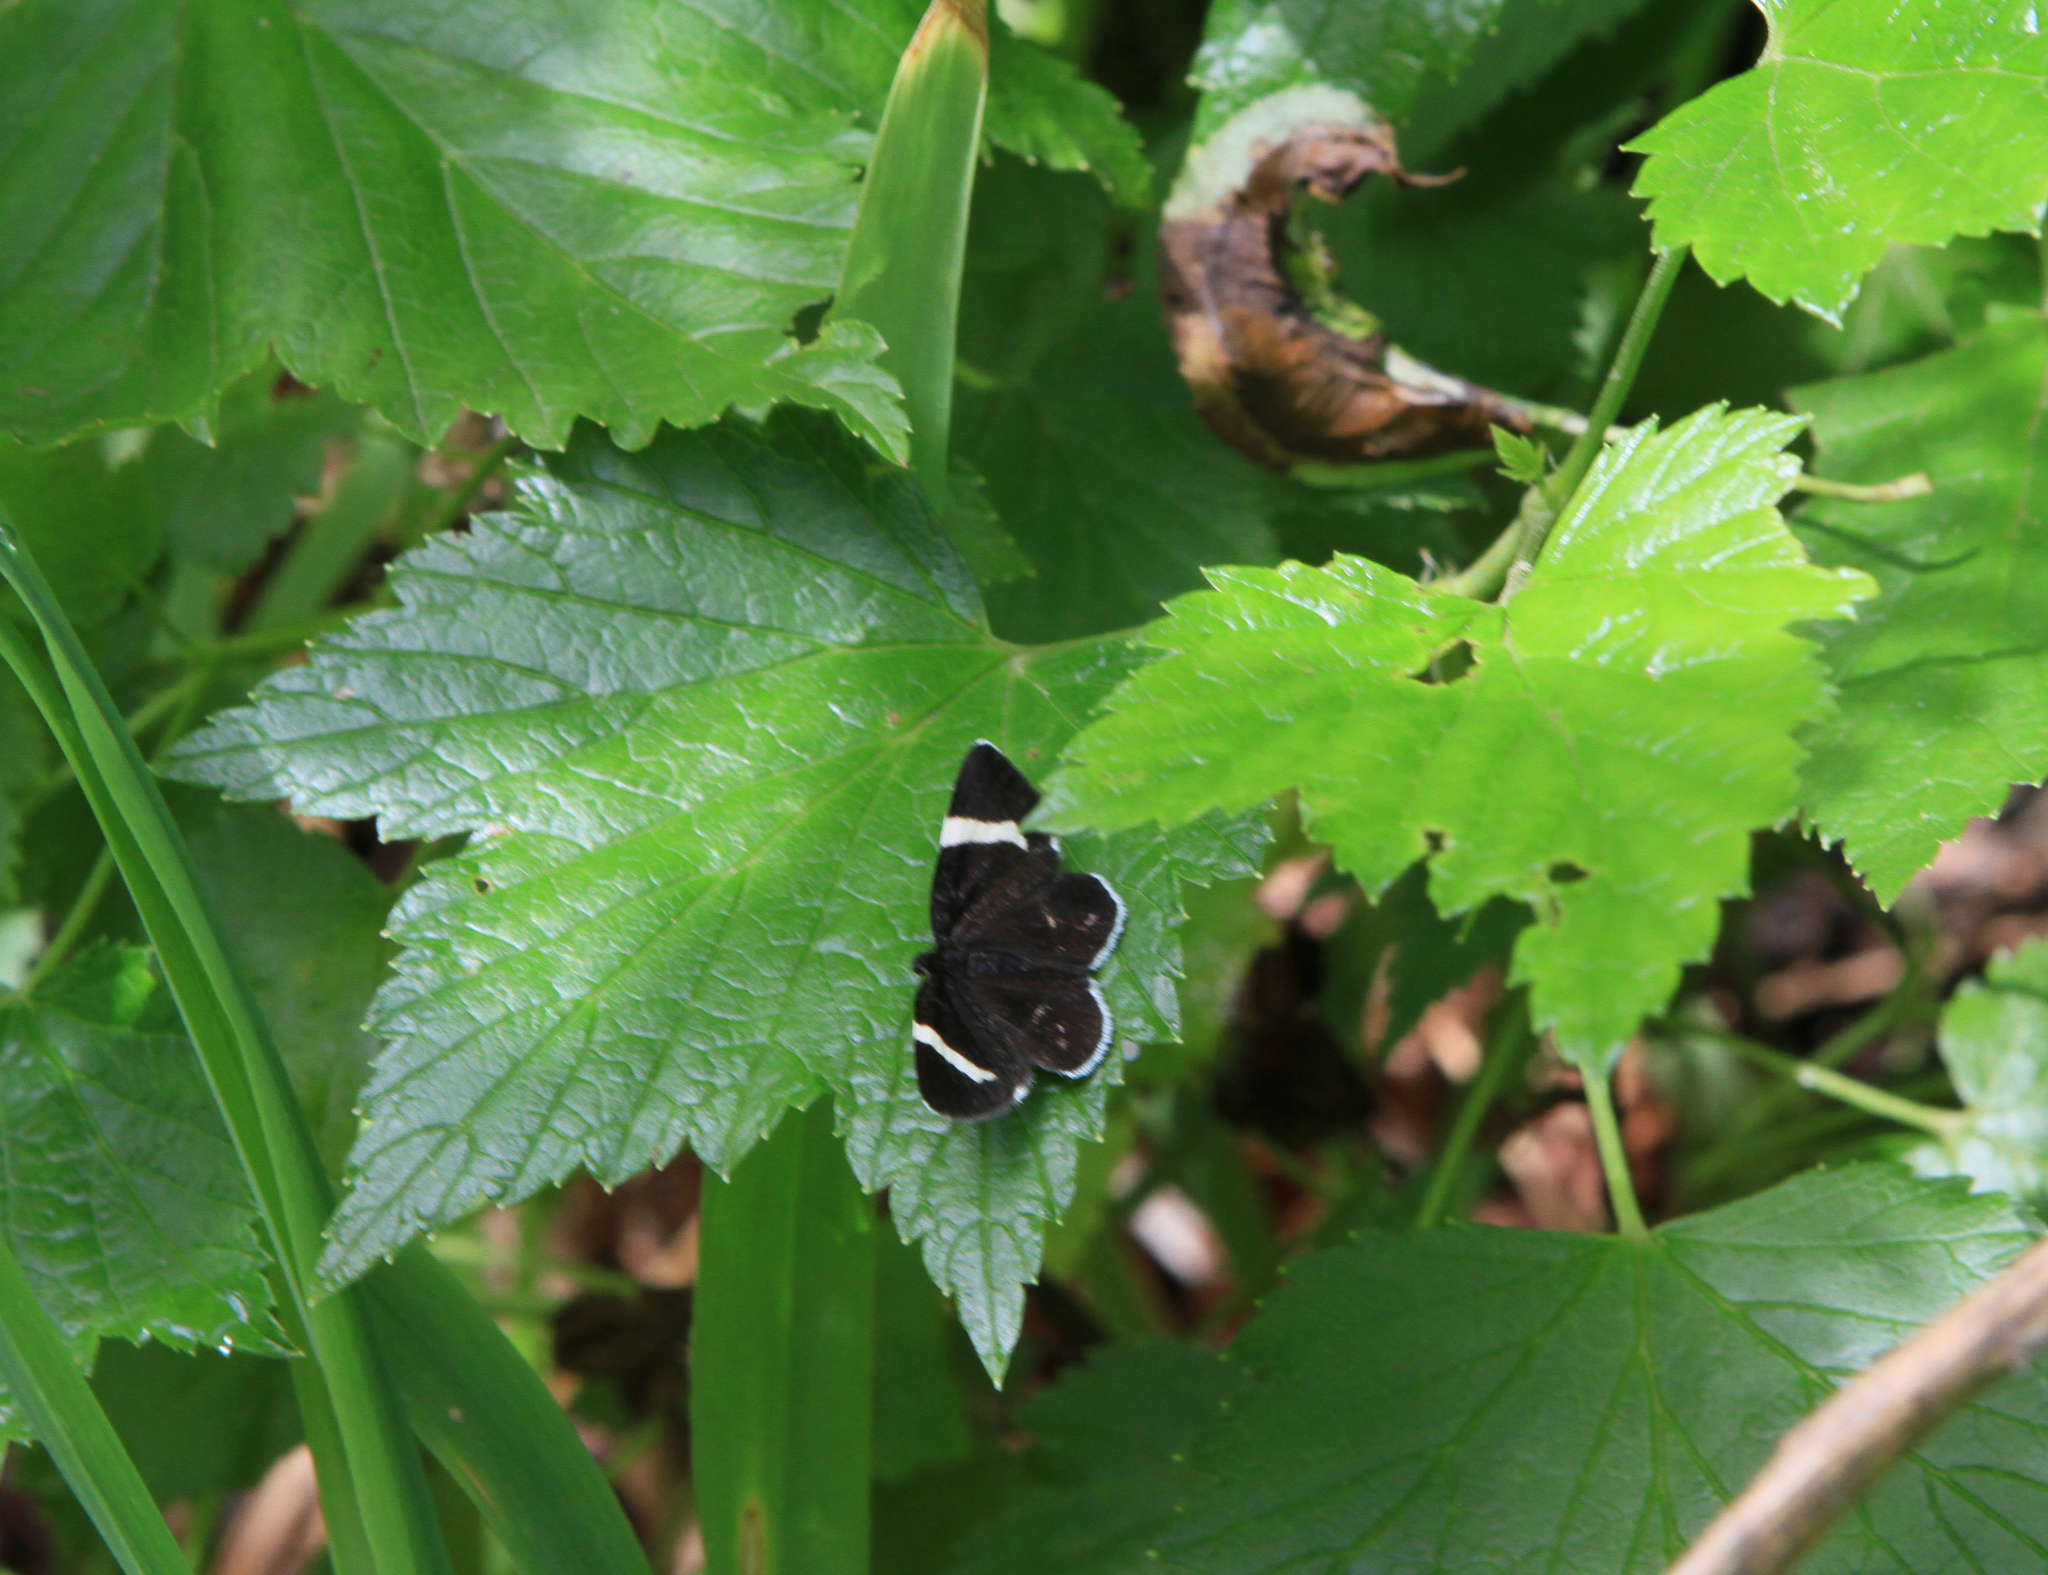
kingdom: Animalia
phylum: Arthropoda
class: Insecta
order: Lepidoptera
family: Geometridae
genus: Baptria
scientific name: Baptria tibiale
